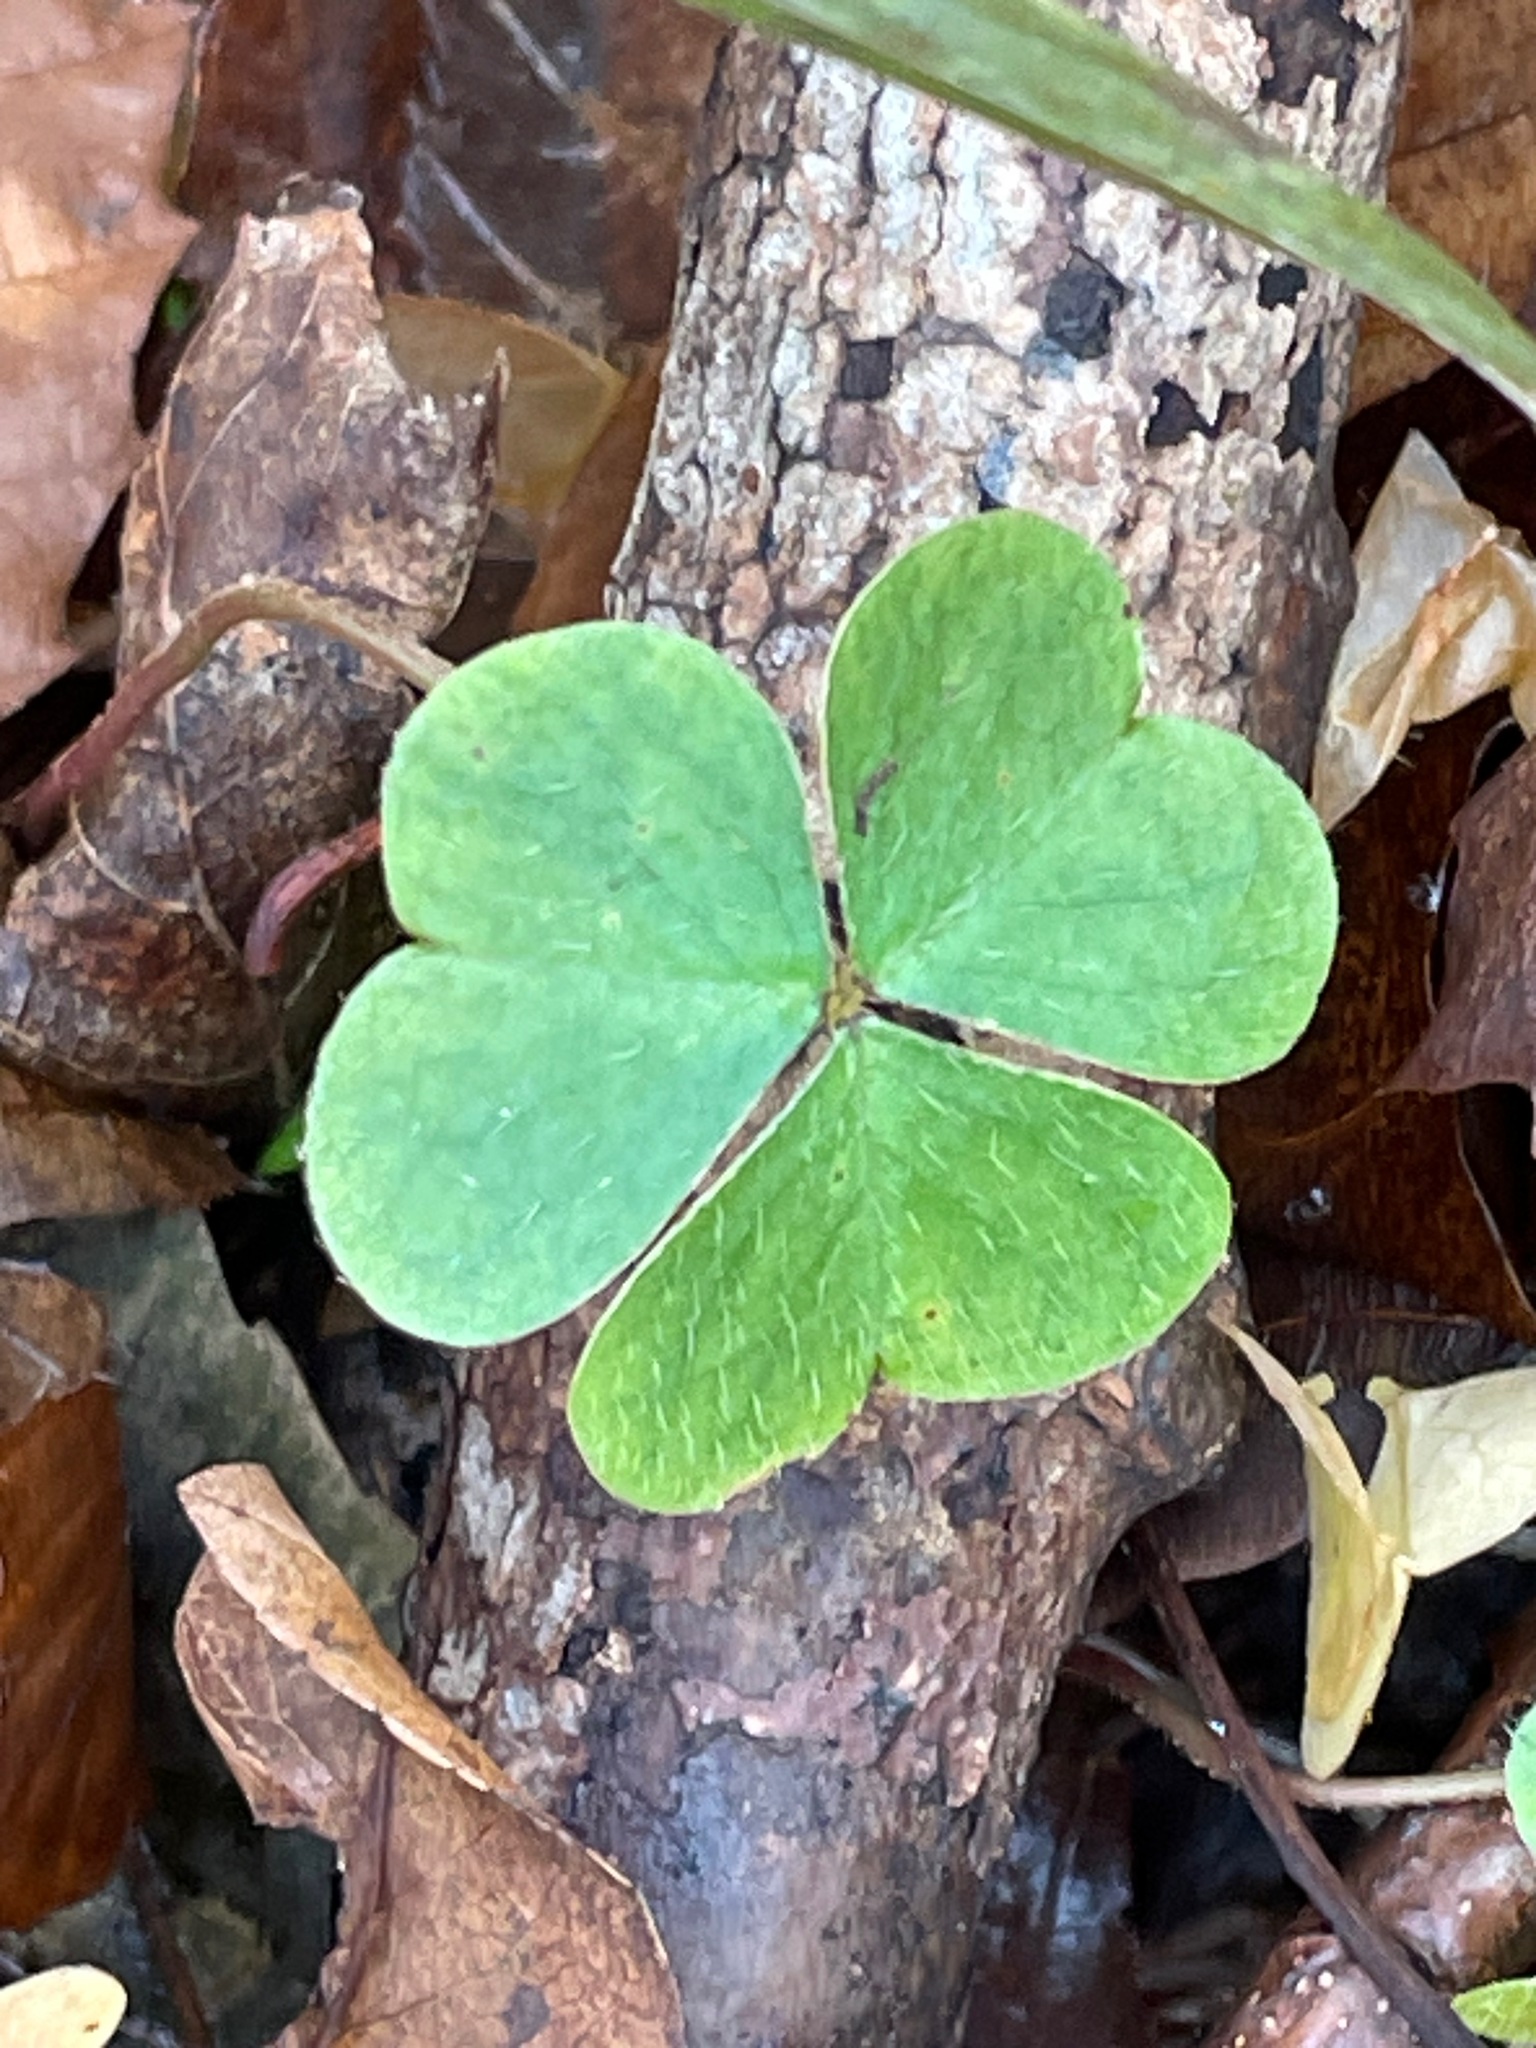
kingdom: Plantae
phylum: Tracheophyta
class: Magnoliopsida
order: Oxalidales
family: Oxalidaceae
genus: Oxalis
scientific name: Oxalis montana
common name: American wood-sorrel
